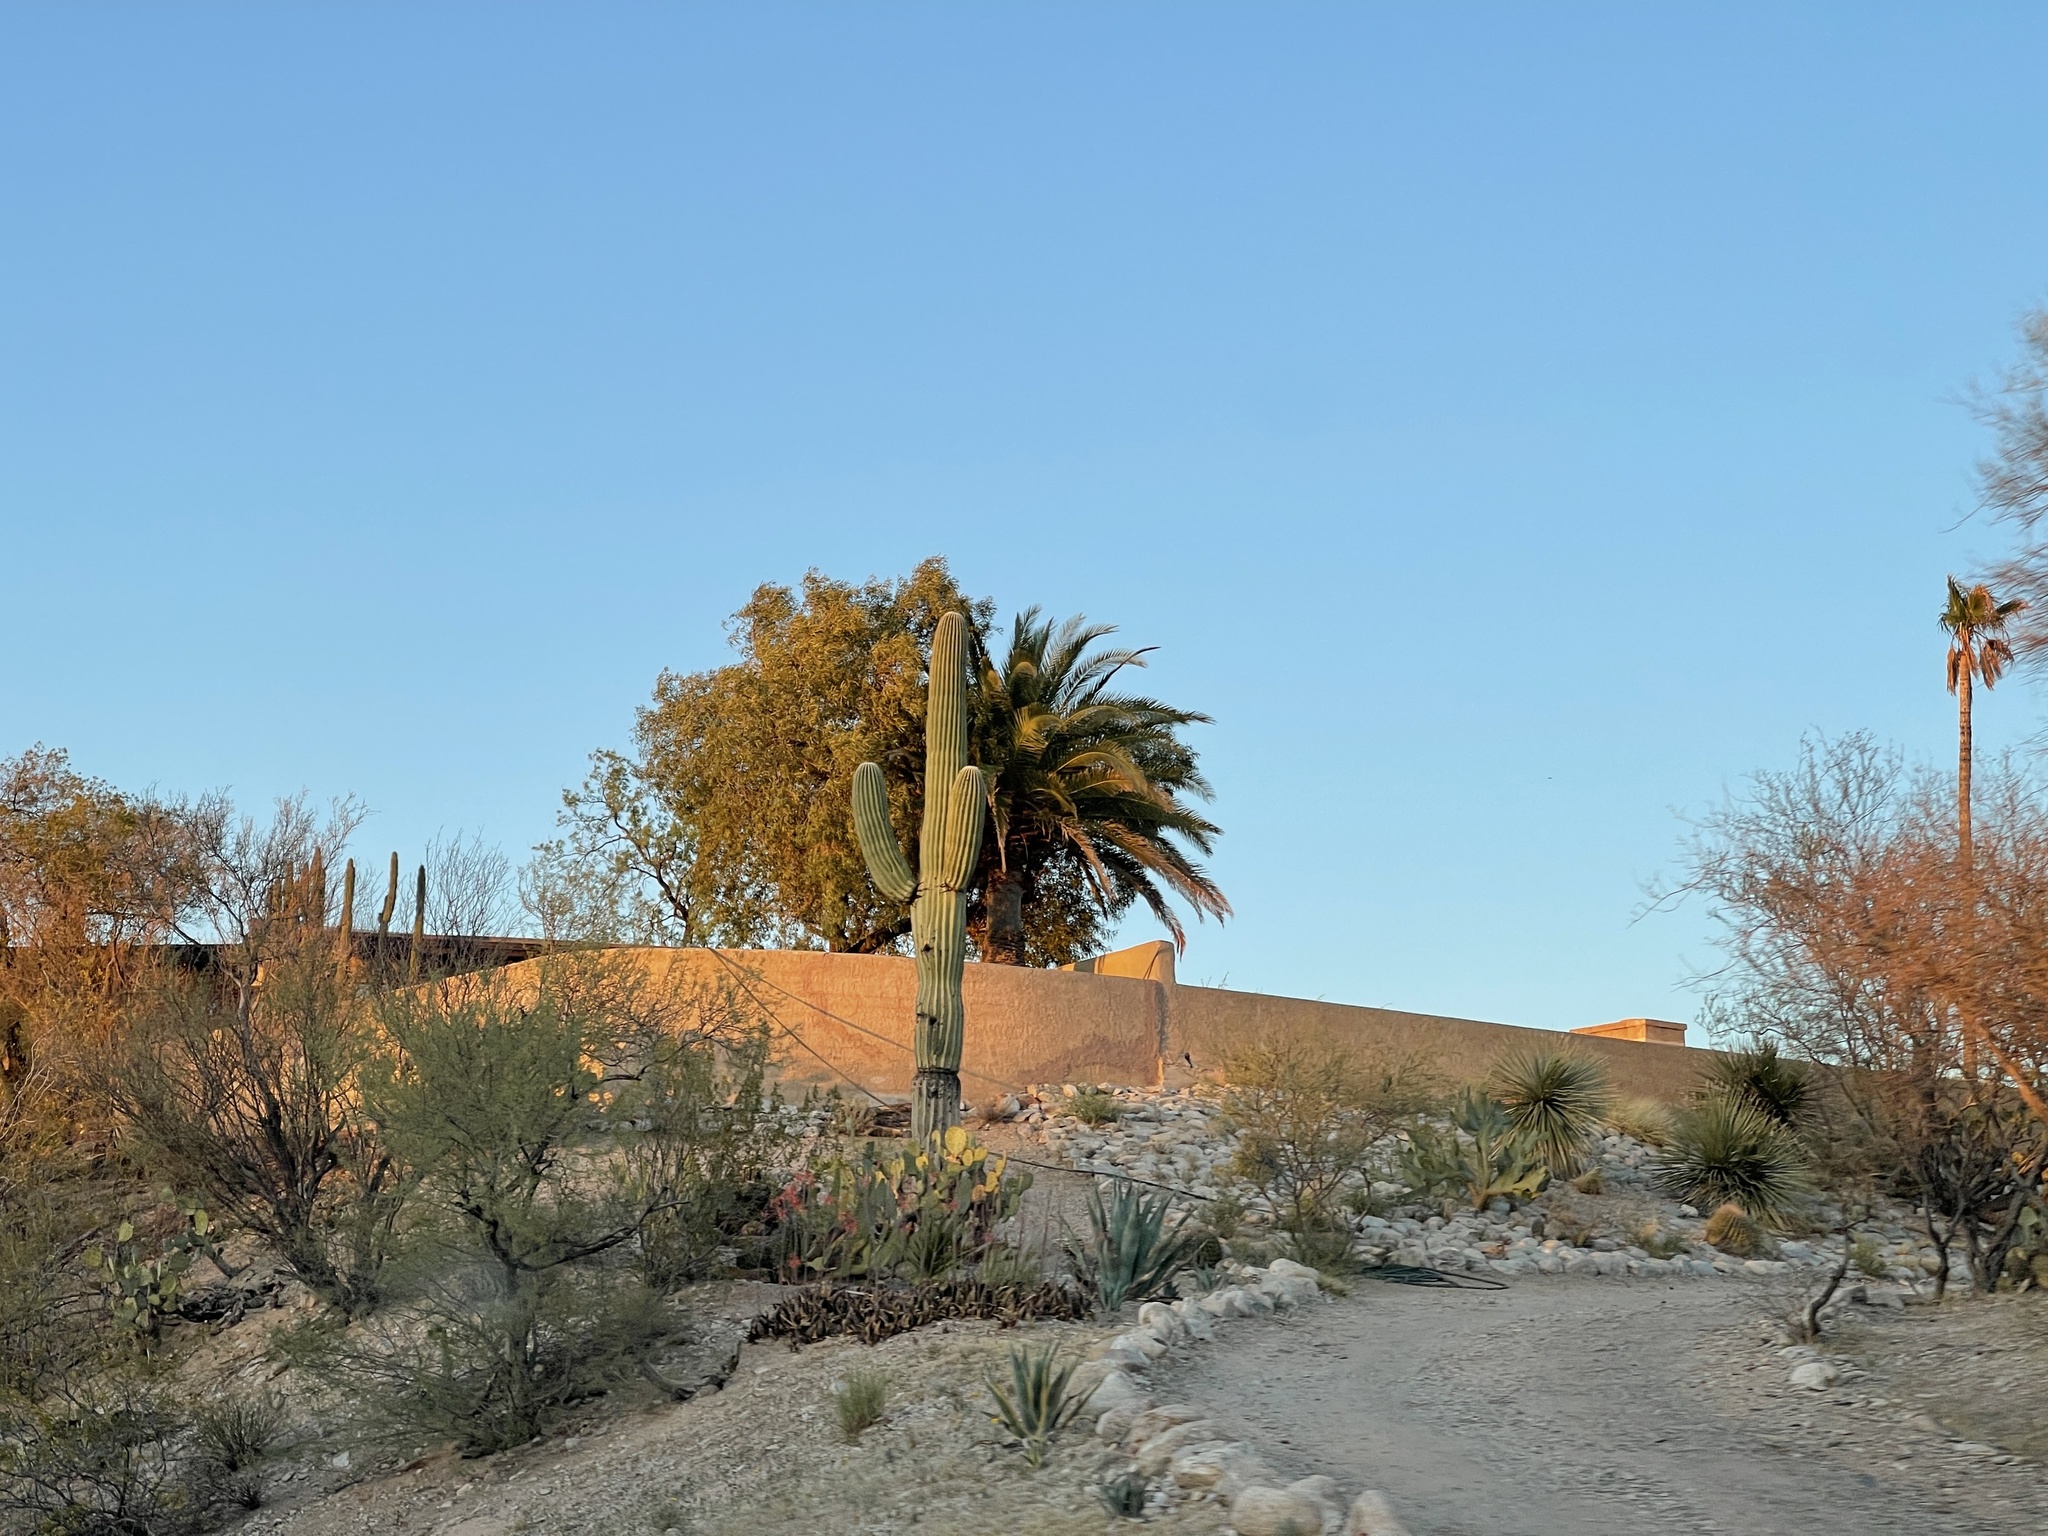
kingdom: Plantae
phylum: Tracheophyta
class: Magnoliopsida
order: Caryophyllales
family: Cactaceae
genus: Carnegiea
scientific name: Carnegiea gigantea
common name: Saguaro
